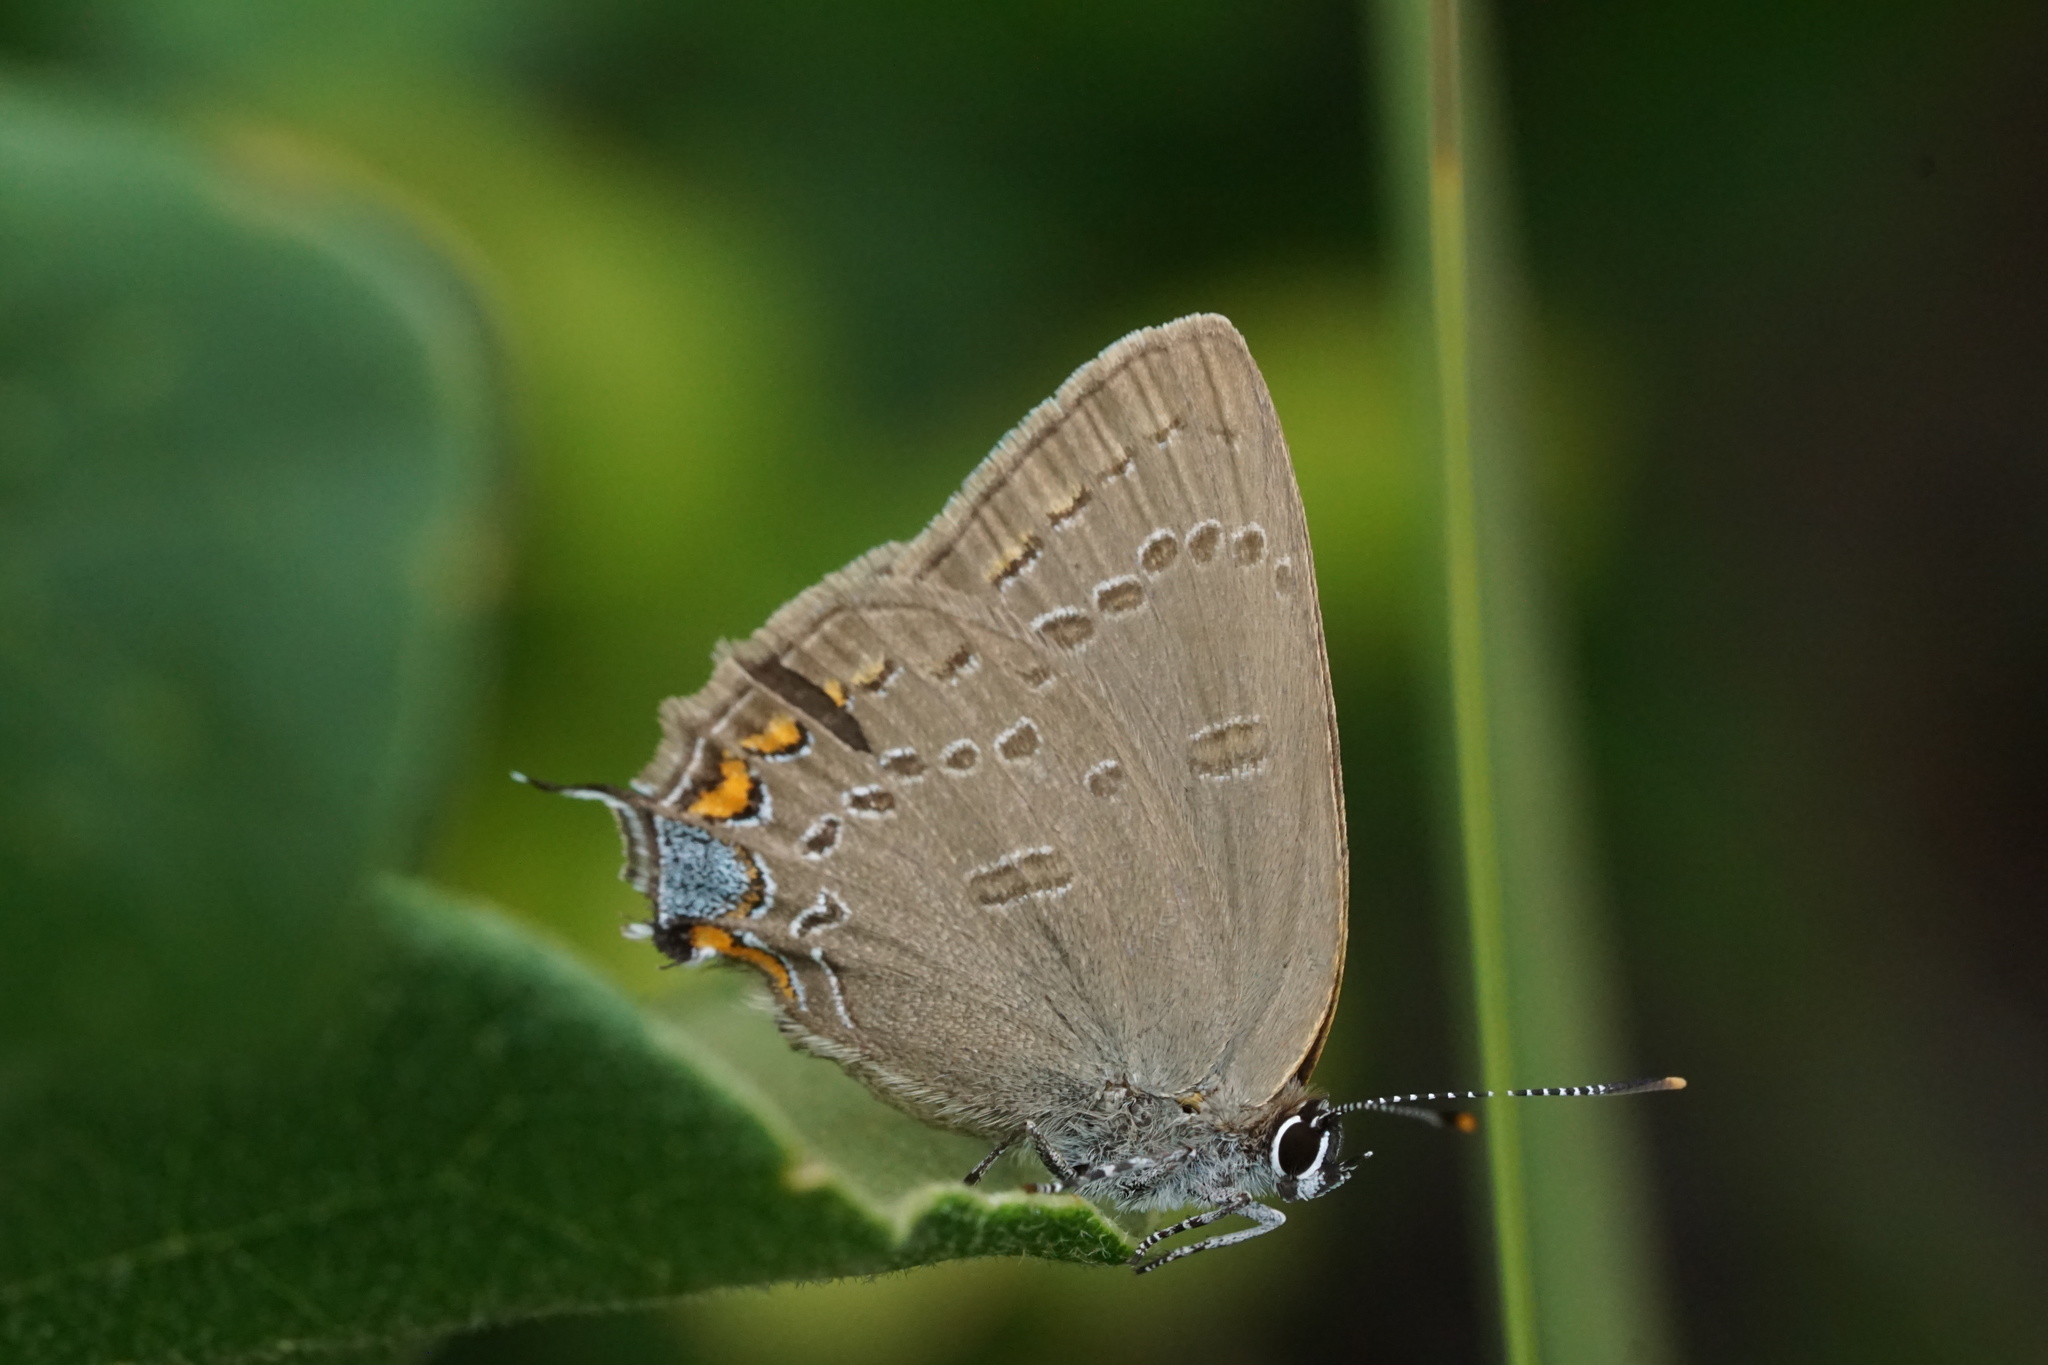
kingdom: Animalia
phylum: Arthropoda
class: Insecta
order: Lepidoptera
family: Lycaenidae
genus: Satyrium
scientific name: Satyrium edwardsii
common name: Edwards' hairstreak
